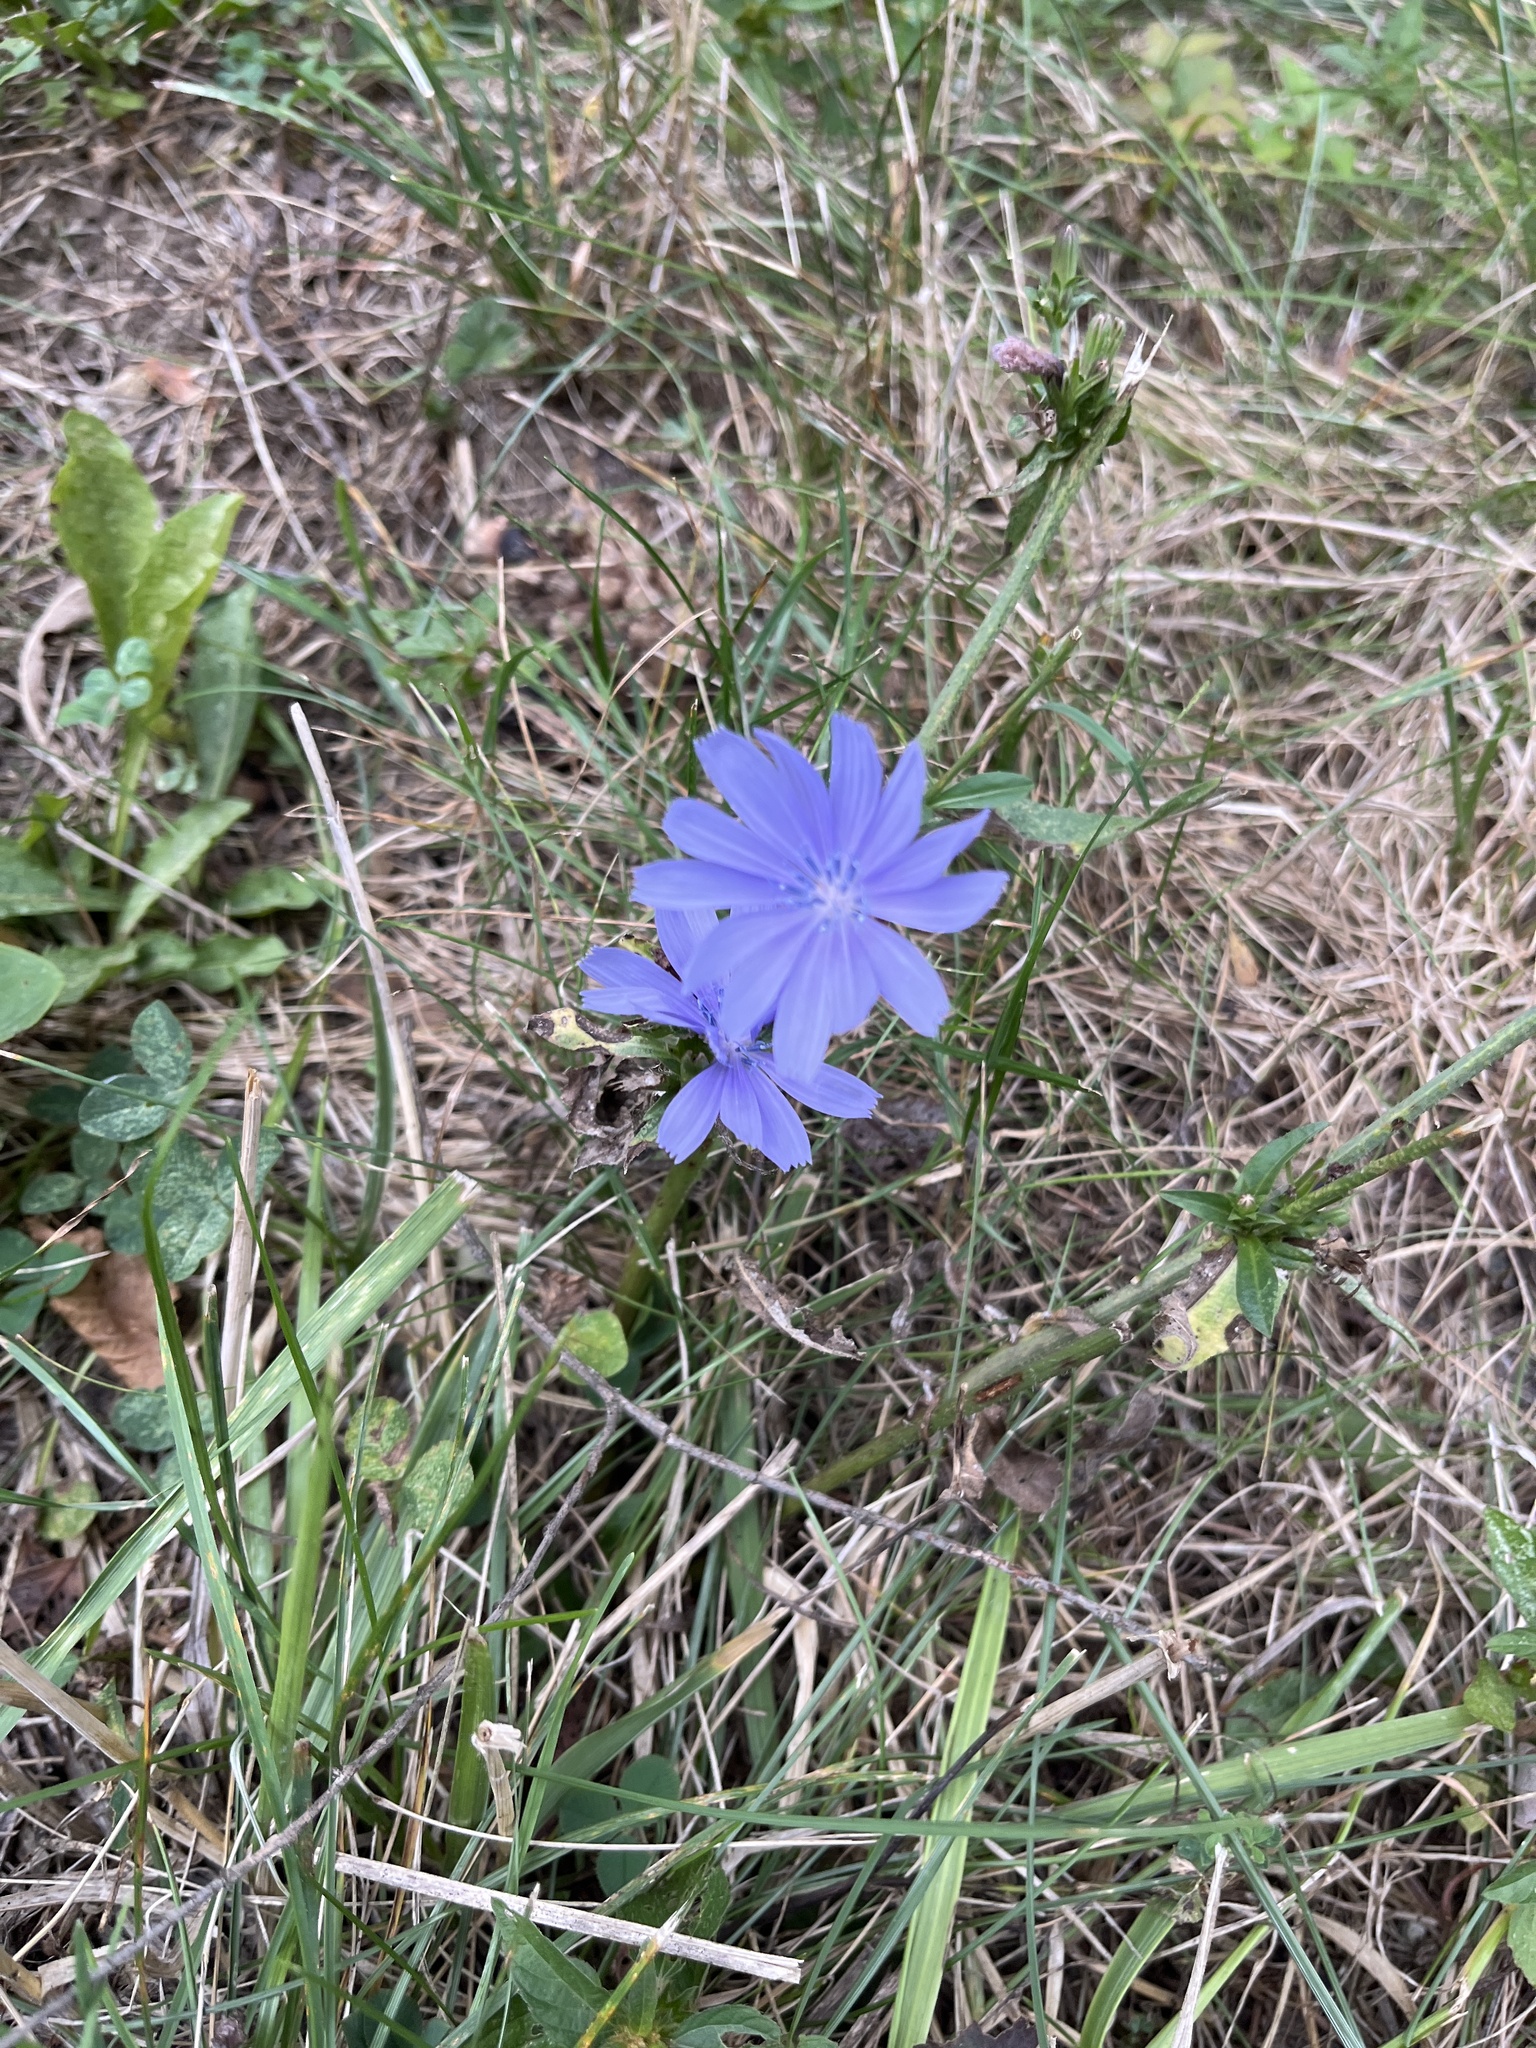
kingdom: Plantae
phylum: Tracheophyta
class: Magnoliopsida
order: Asterales
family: Asteraceae
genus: Cichorium
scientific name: Cichorium intybus
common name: Chicory
